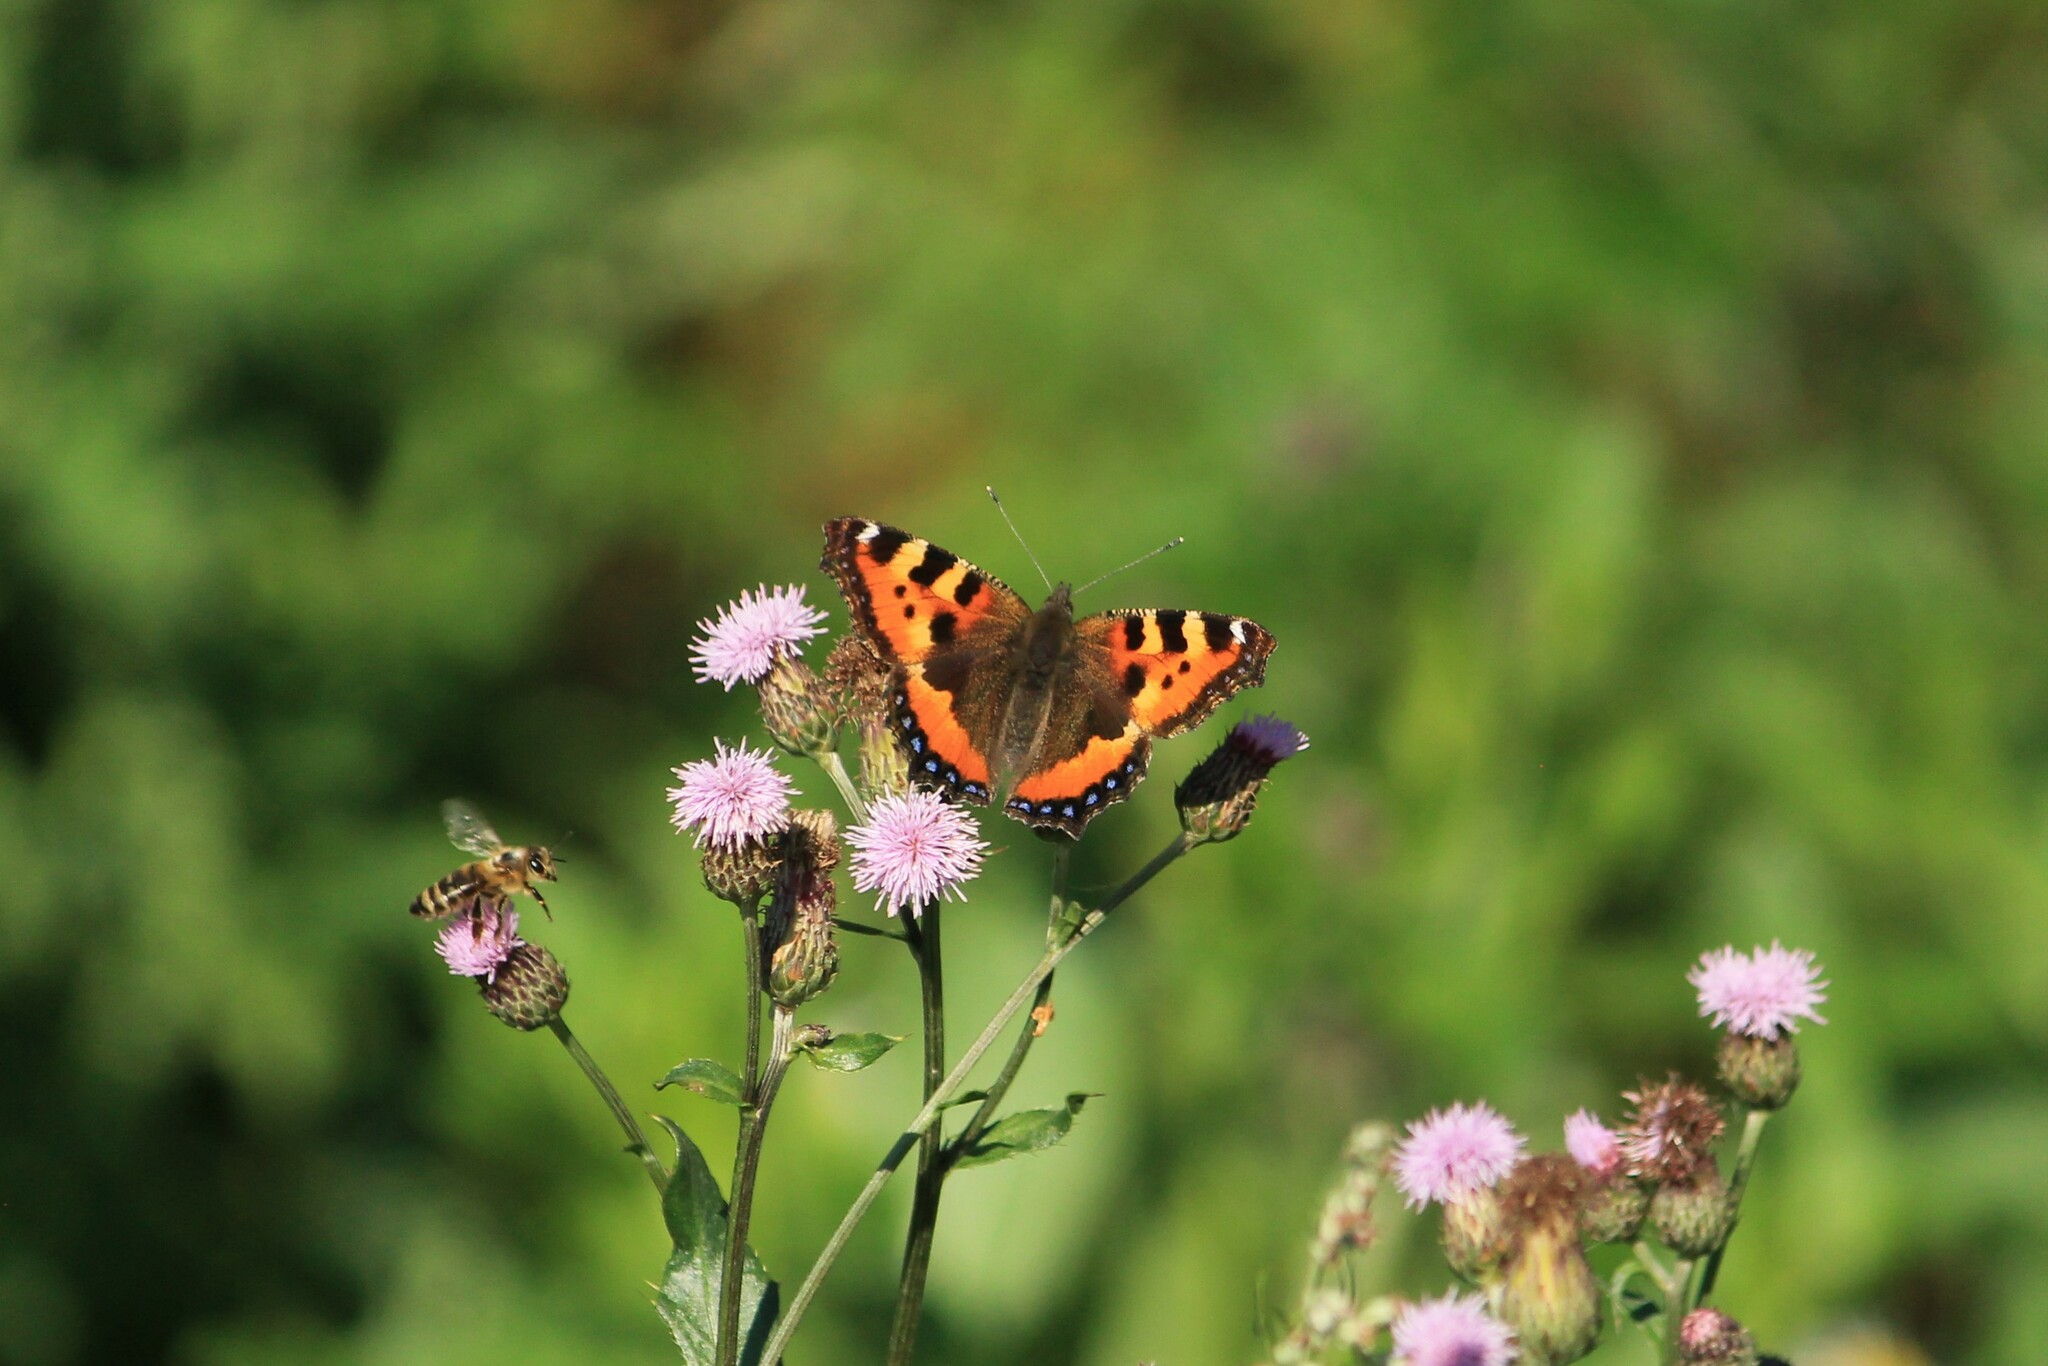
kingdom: Animalia
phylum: Arthropoda
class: Insecta
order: Lepidoptera
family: Nymphalidae
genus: Aglais
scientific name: Aglais urticae
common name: Small tortoiseshell
